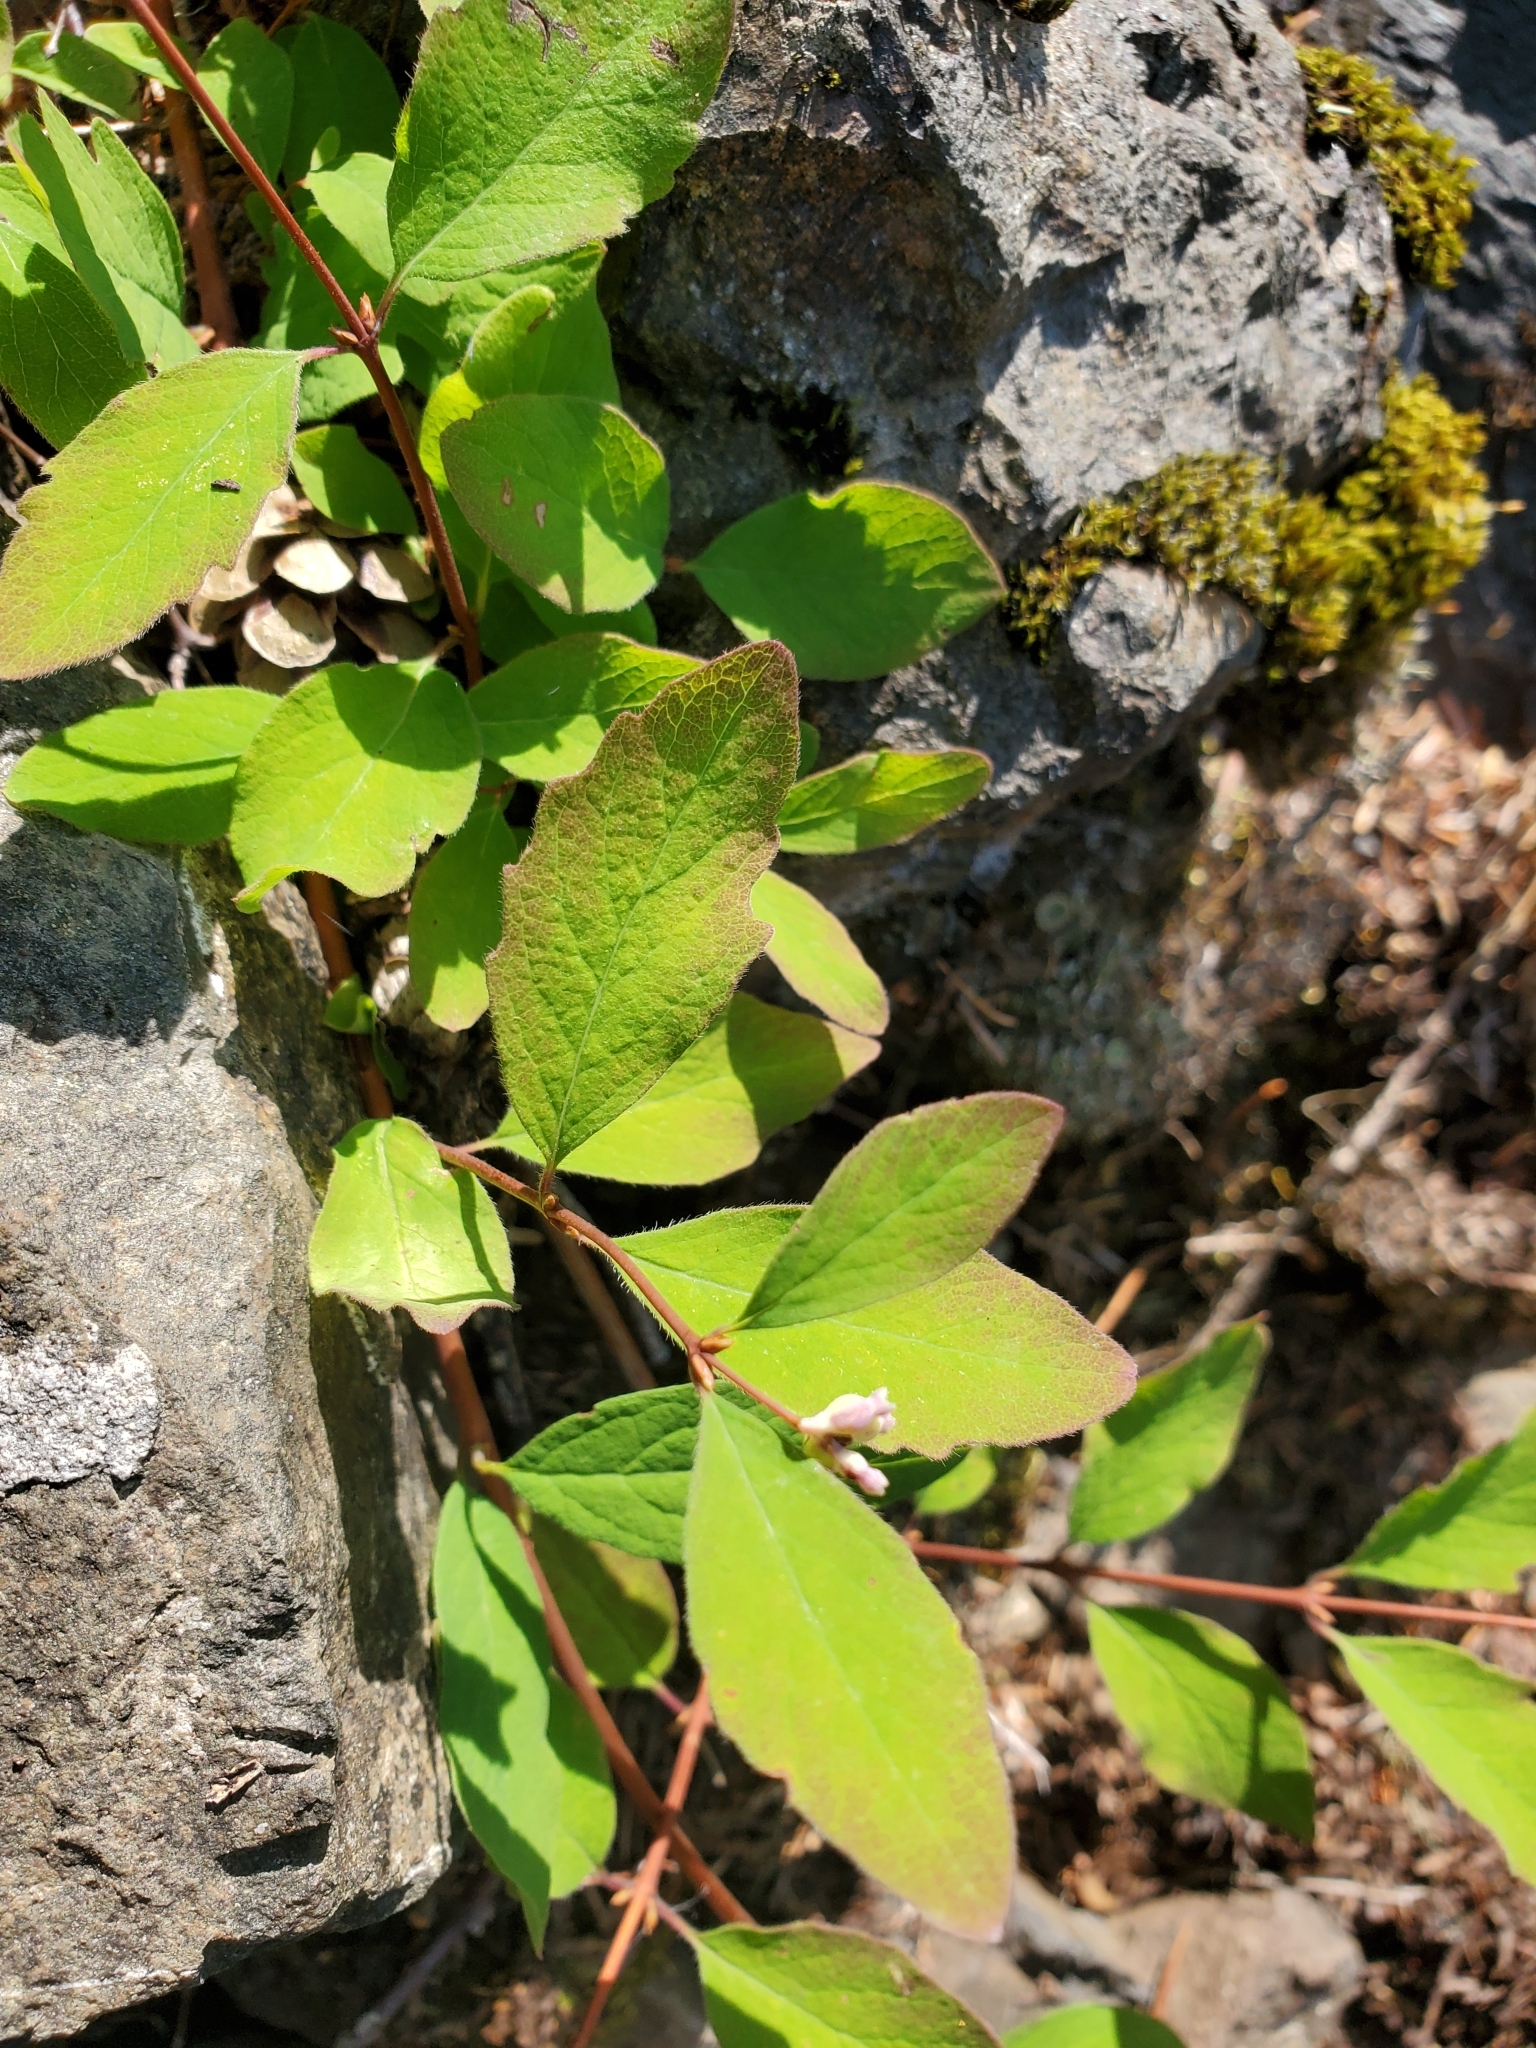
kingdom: Plantae
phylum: Tracheophyta
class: Magnoliopsida
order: Dipsacales
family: Caprifoliaceae
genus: Symphoricarpos
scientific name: Symphoricarpos mollis
